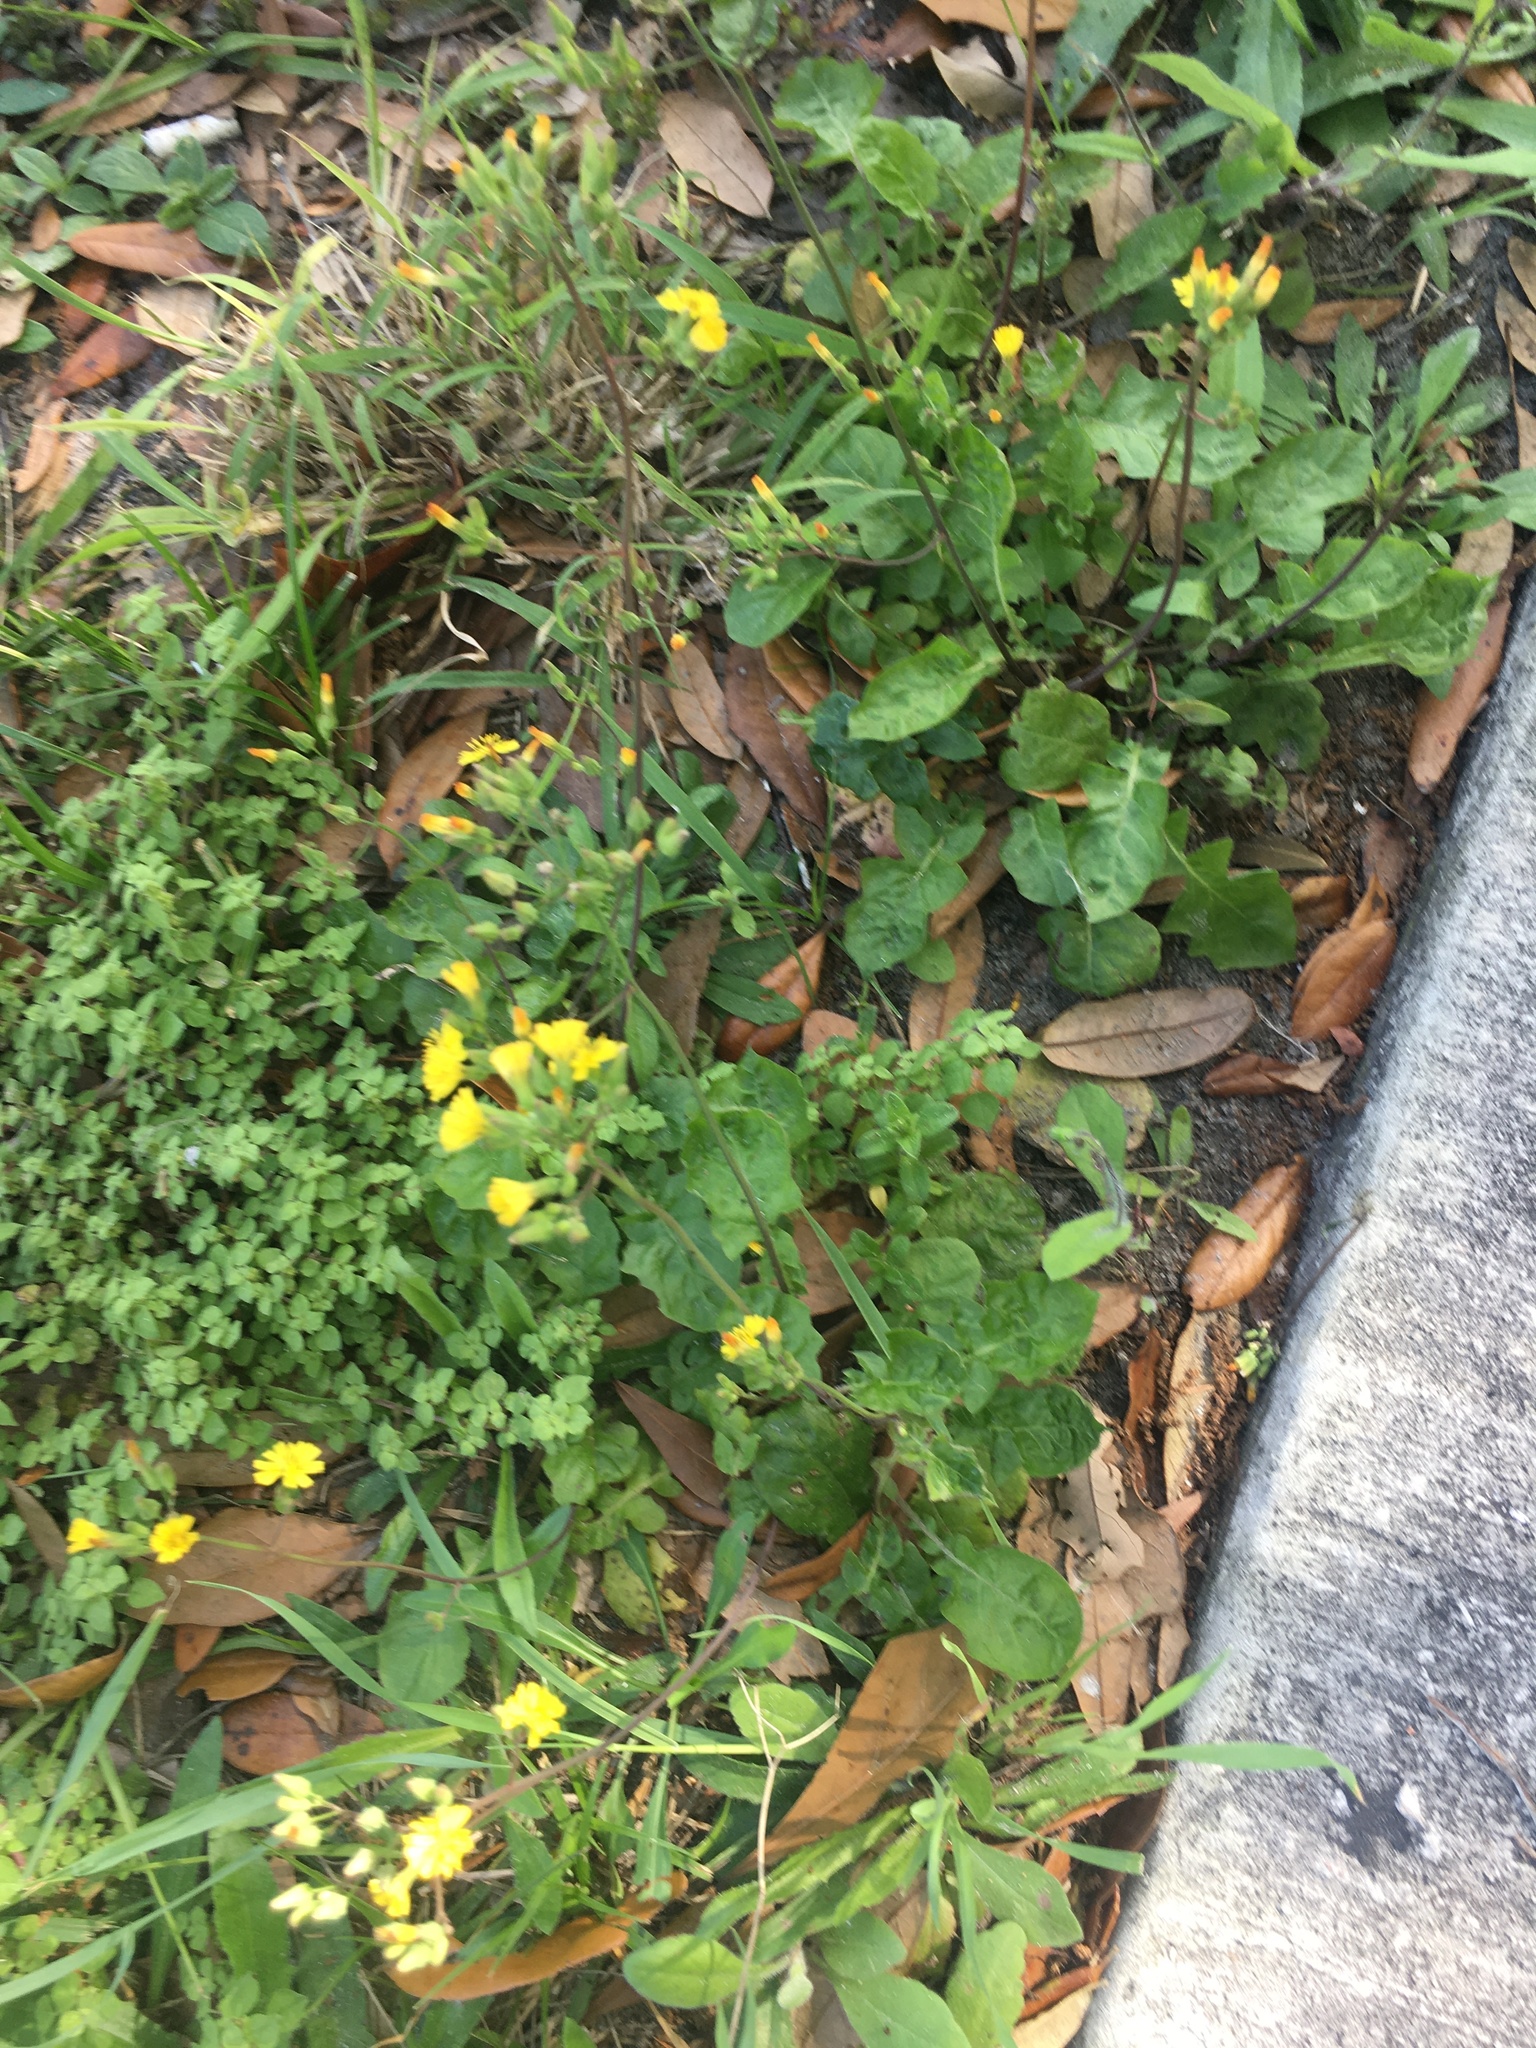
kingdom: Plantae
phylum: Tracheophyta
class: Magnoliopsida
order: Asterales
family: Asteraceae
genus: Youngia
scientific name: Youngia japonica
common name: Oriental false hawksbeard
